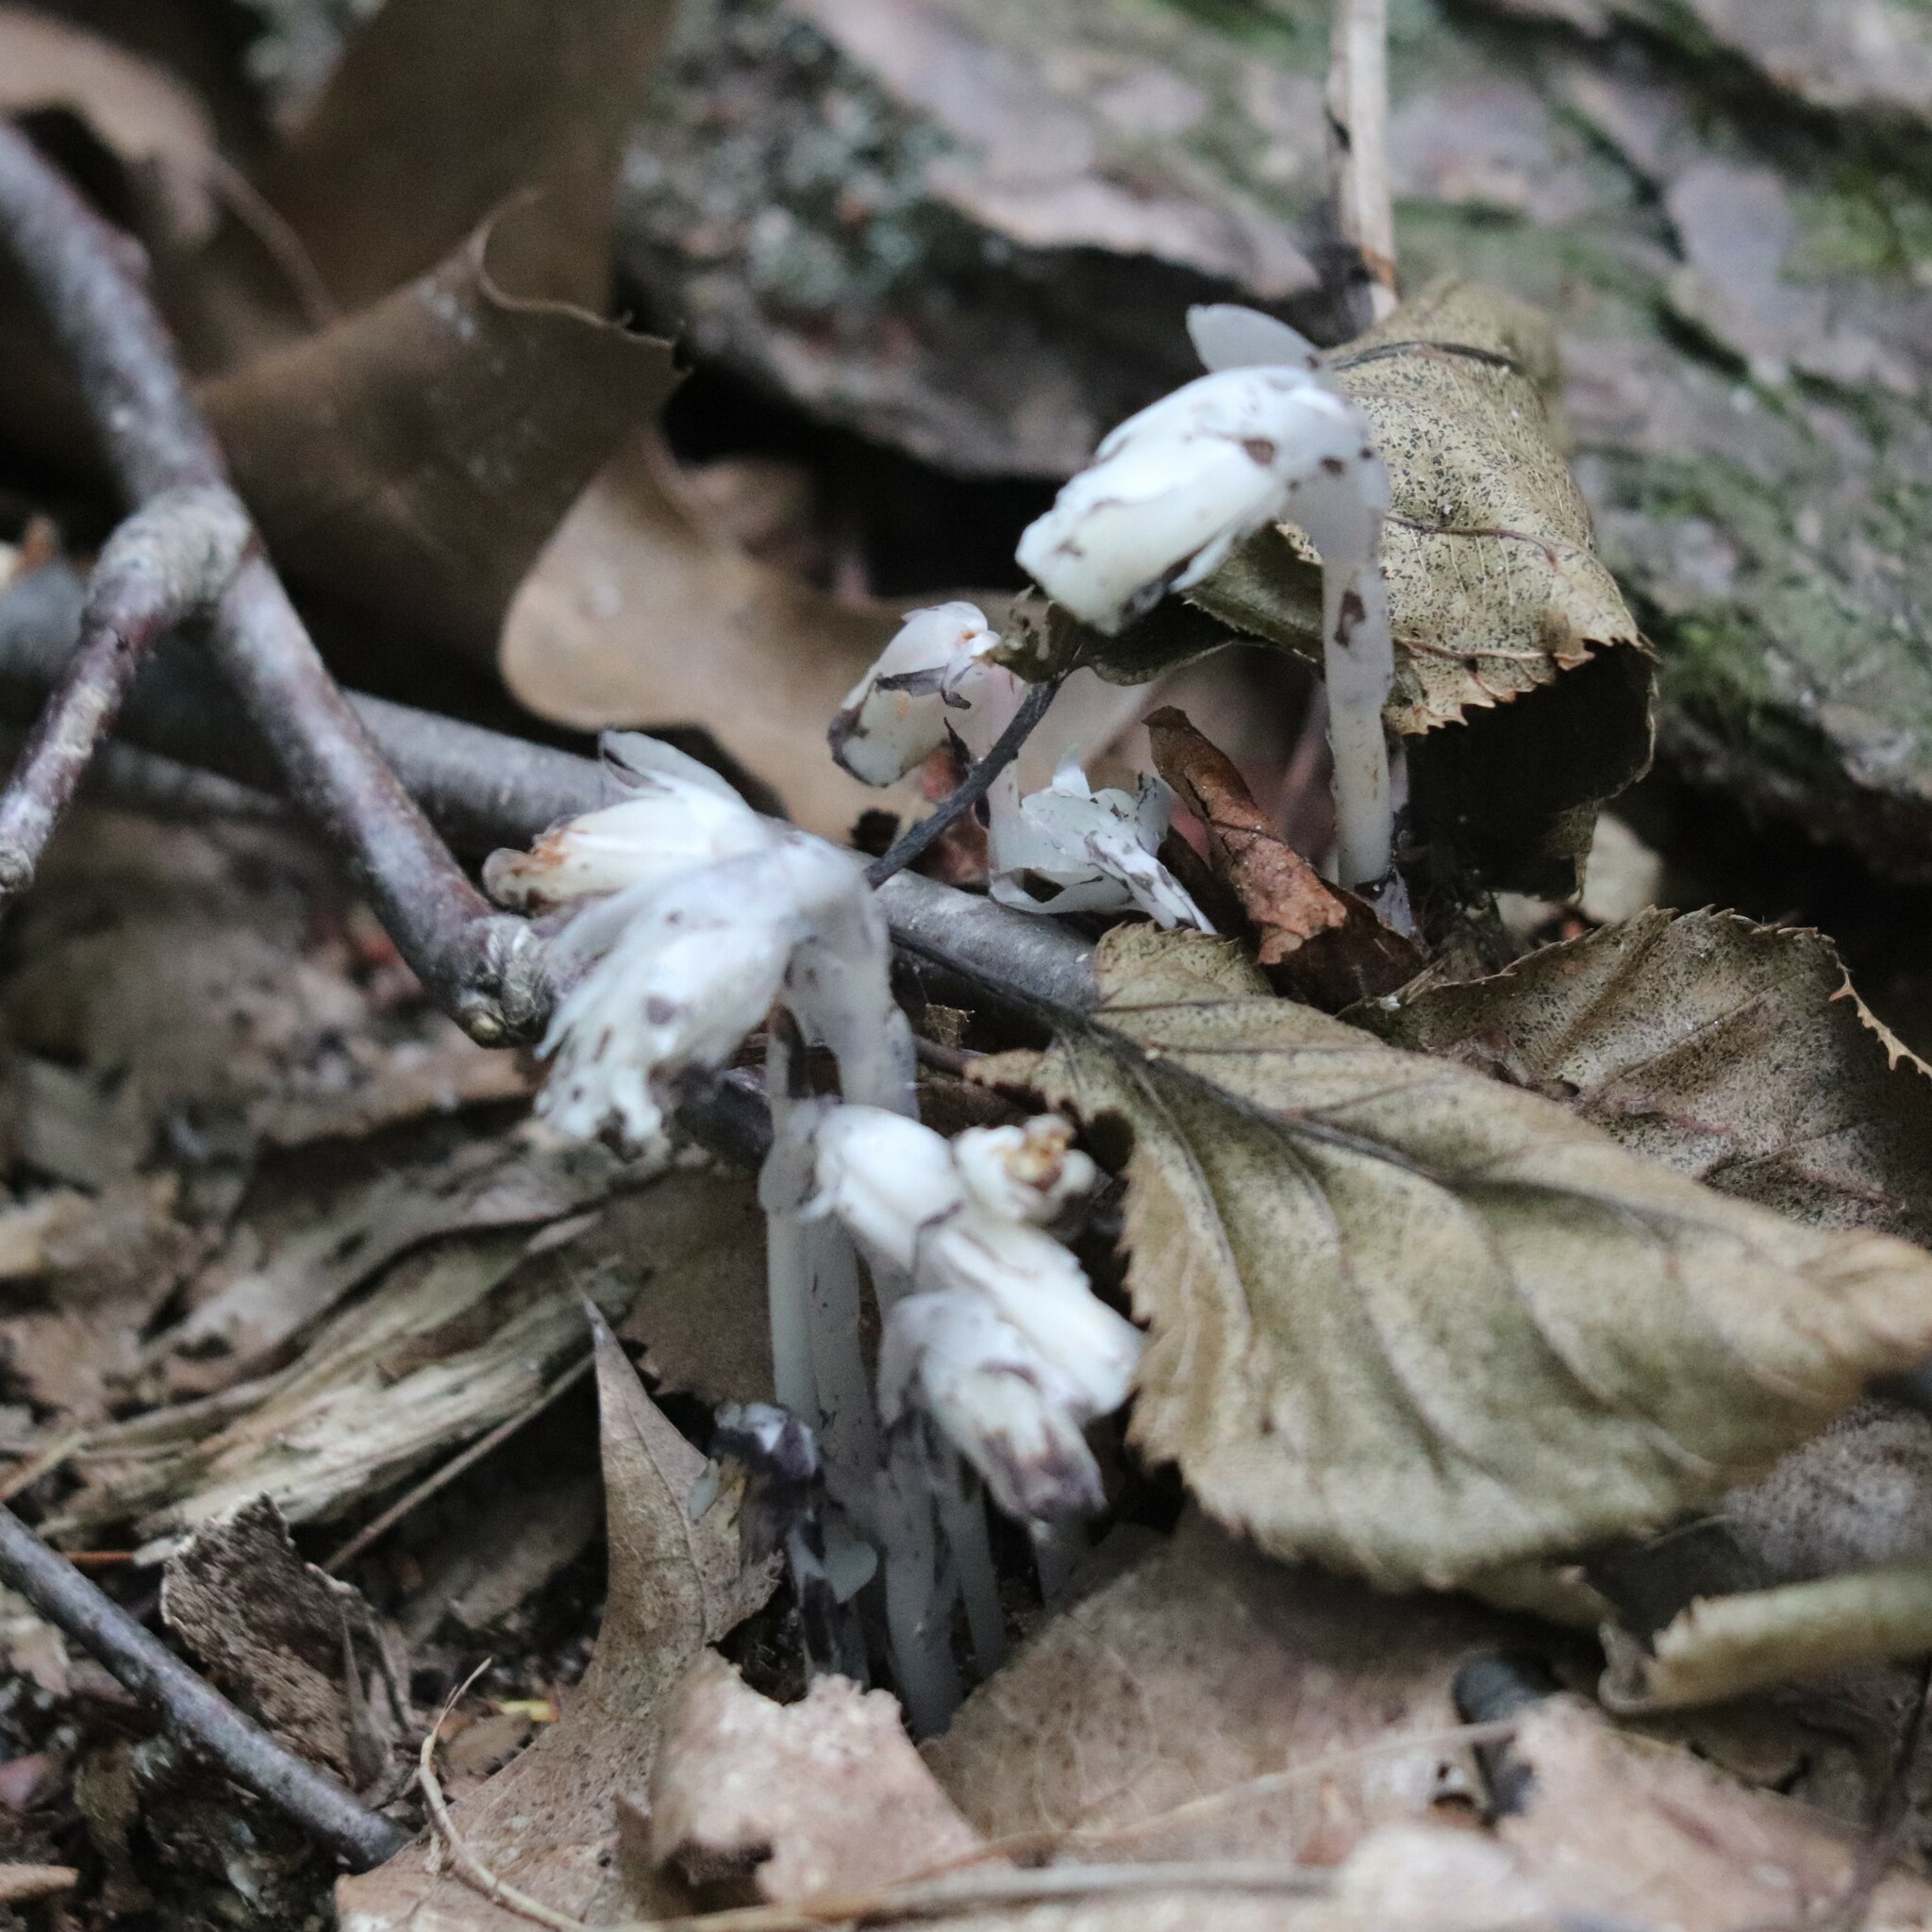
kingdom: Plantae
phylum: Tracheophyta
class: Magnoliopsida
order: Ericales
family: Ericaceae
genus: Monotropa
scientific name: Monotropa uniflora
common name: Convulsion root
